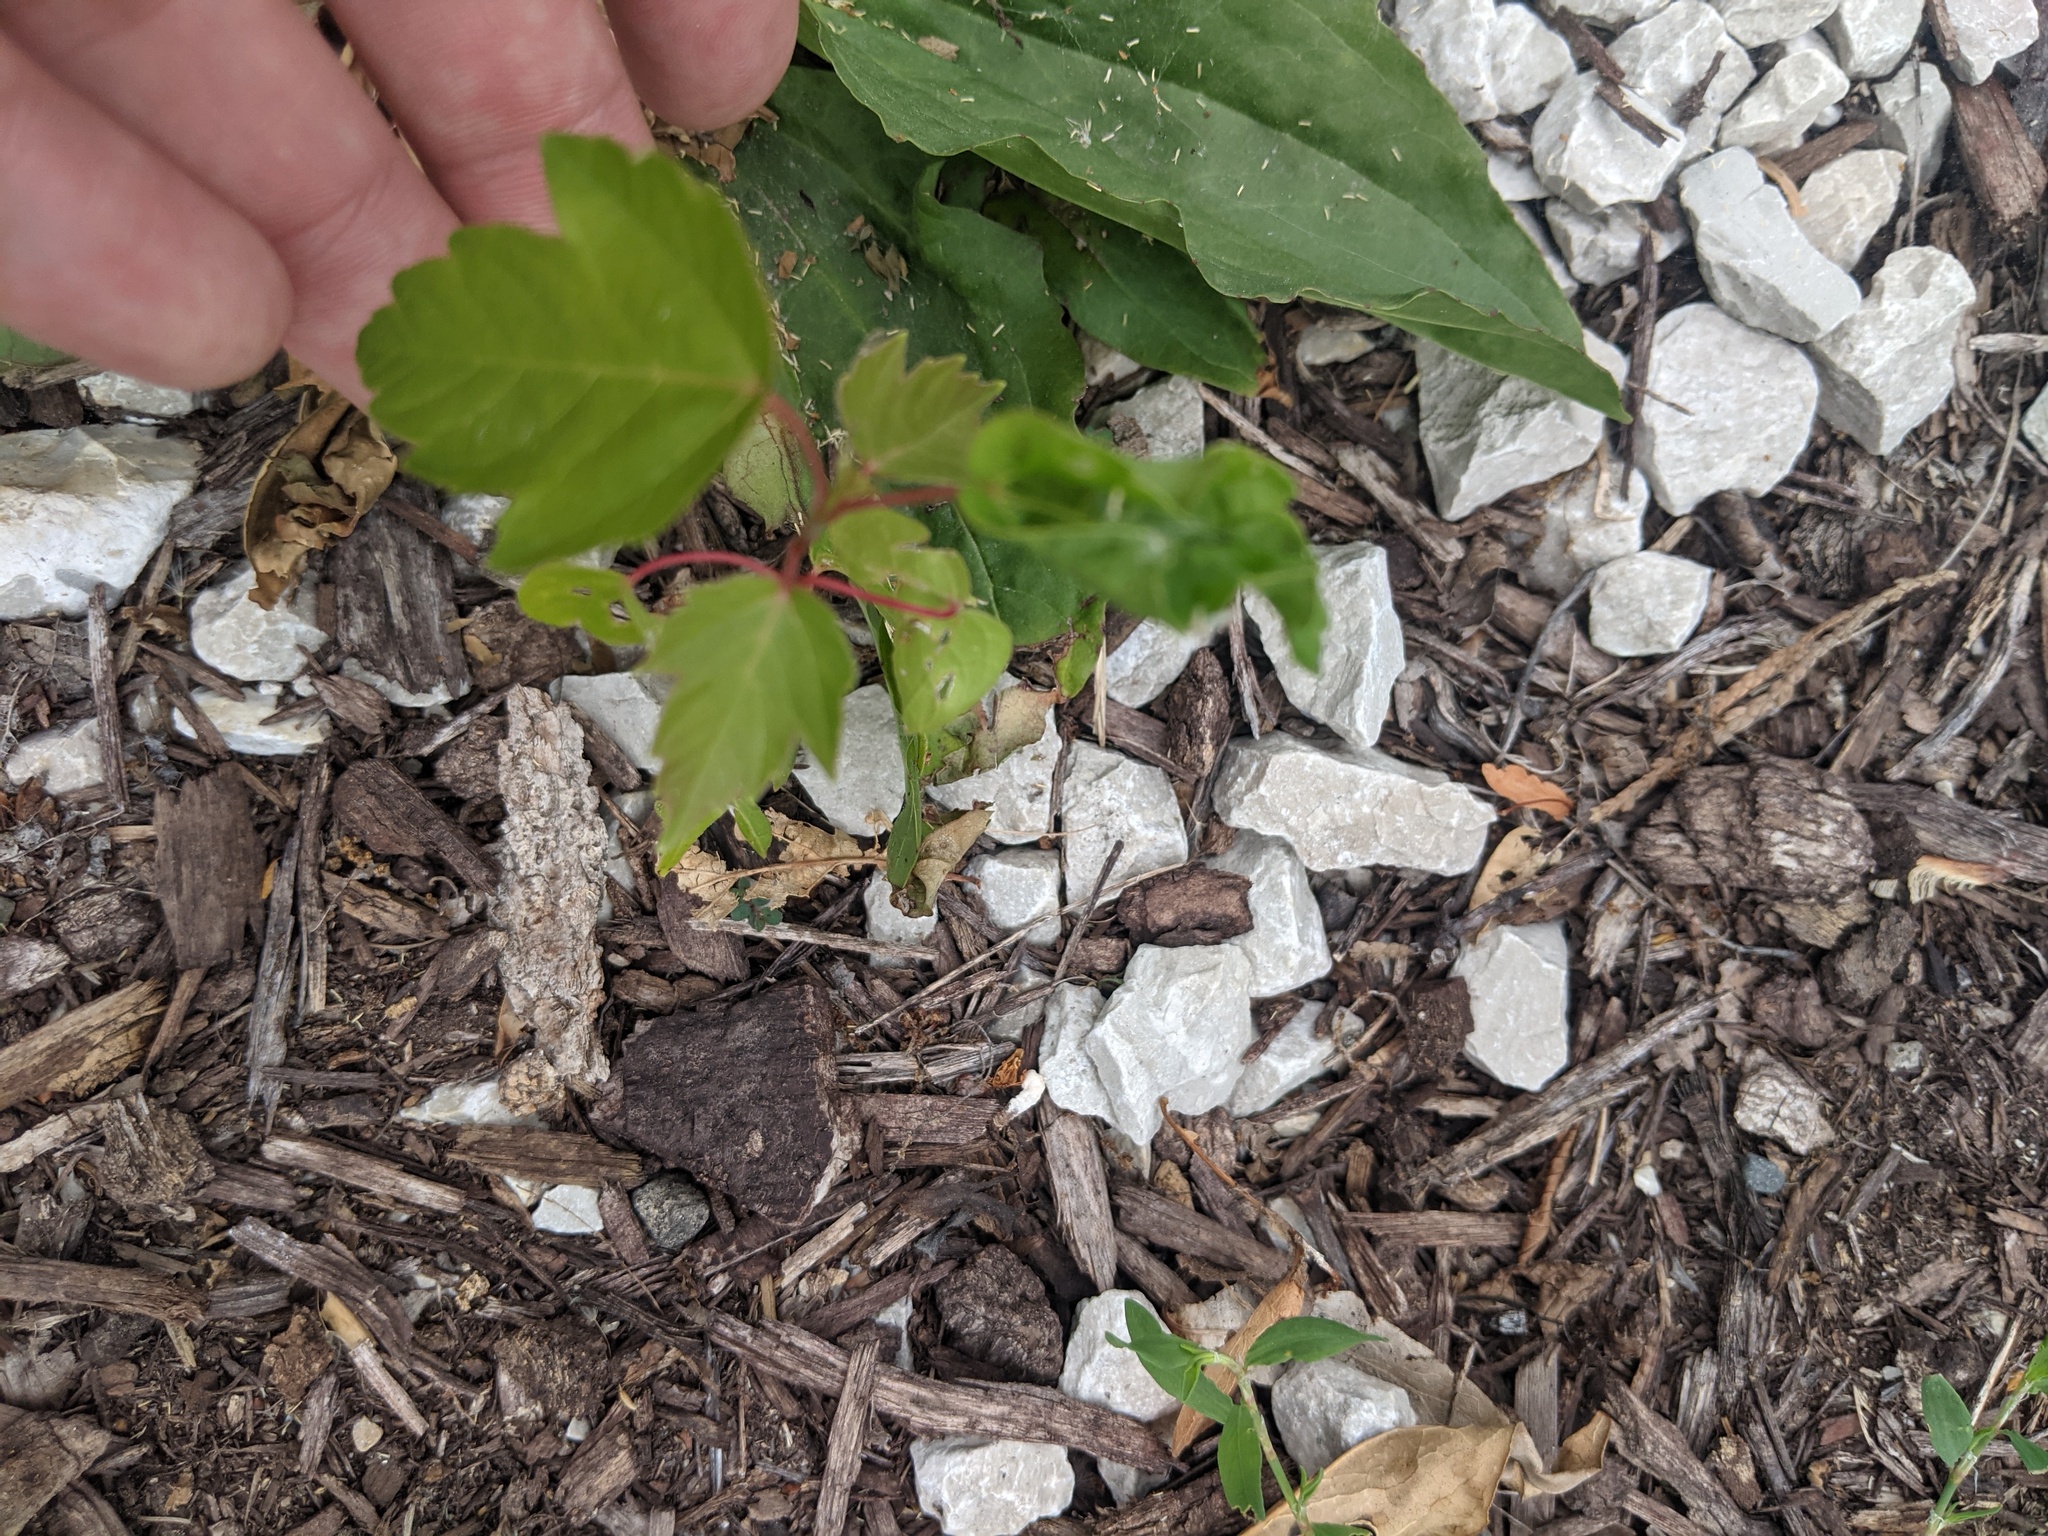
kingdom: Plantae
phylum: Tracheophyta
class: Magnoliopsida
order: Sapindales
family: Sapindaceae
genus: Acer
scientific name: Acer negundo
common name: Ashleaf maple
